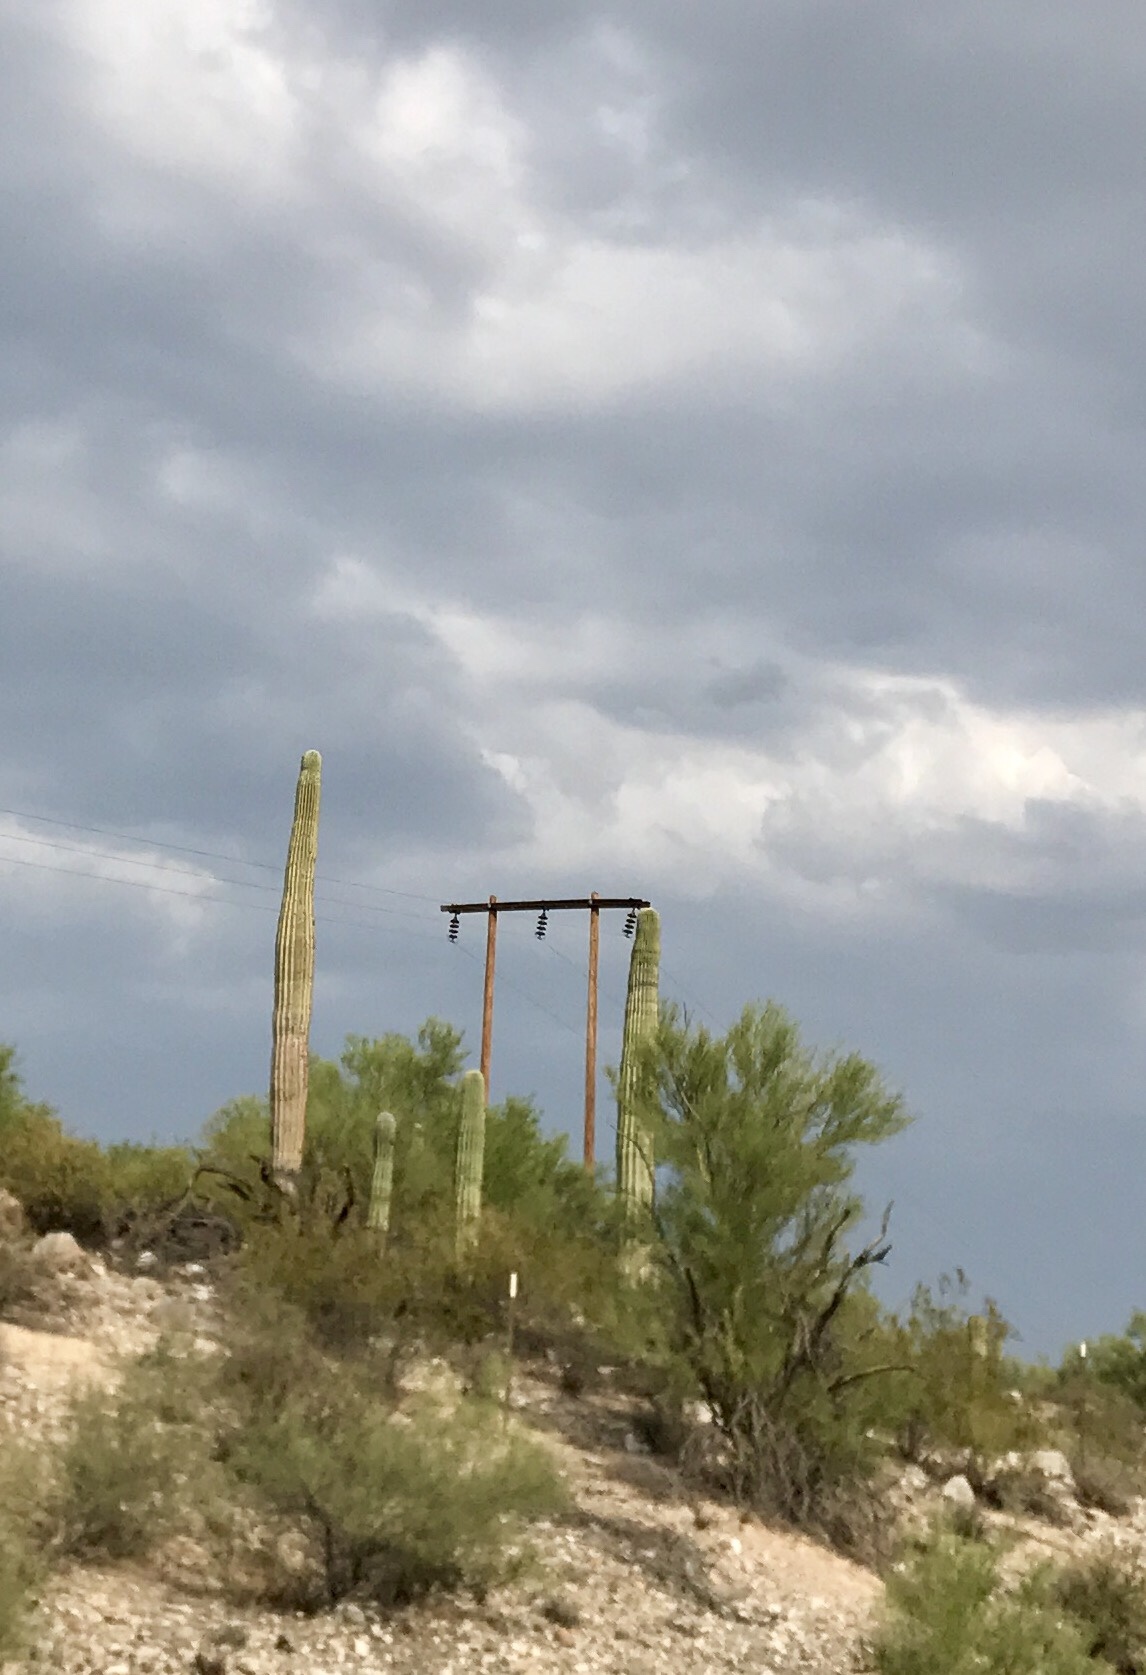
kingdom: Plantae
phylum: Tracheophyta
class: Magnoliopsida
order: Caryophyllales
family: Cactaceae
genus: Carnegiea
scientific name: Carnegiea gigantea
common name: Saguaro
